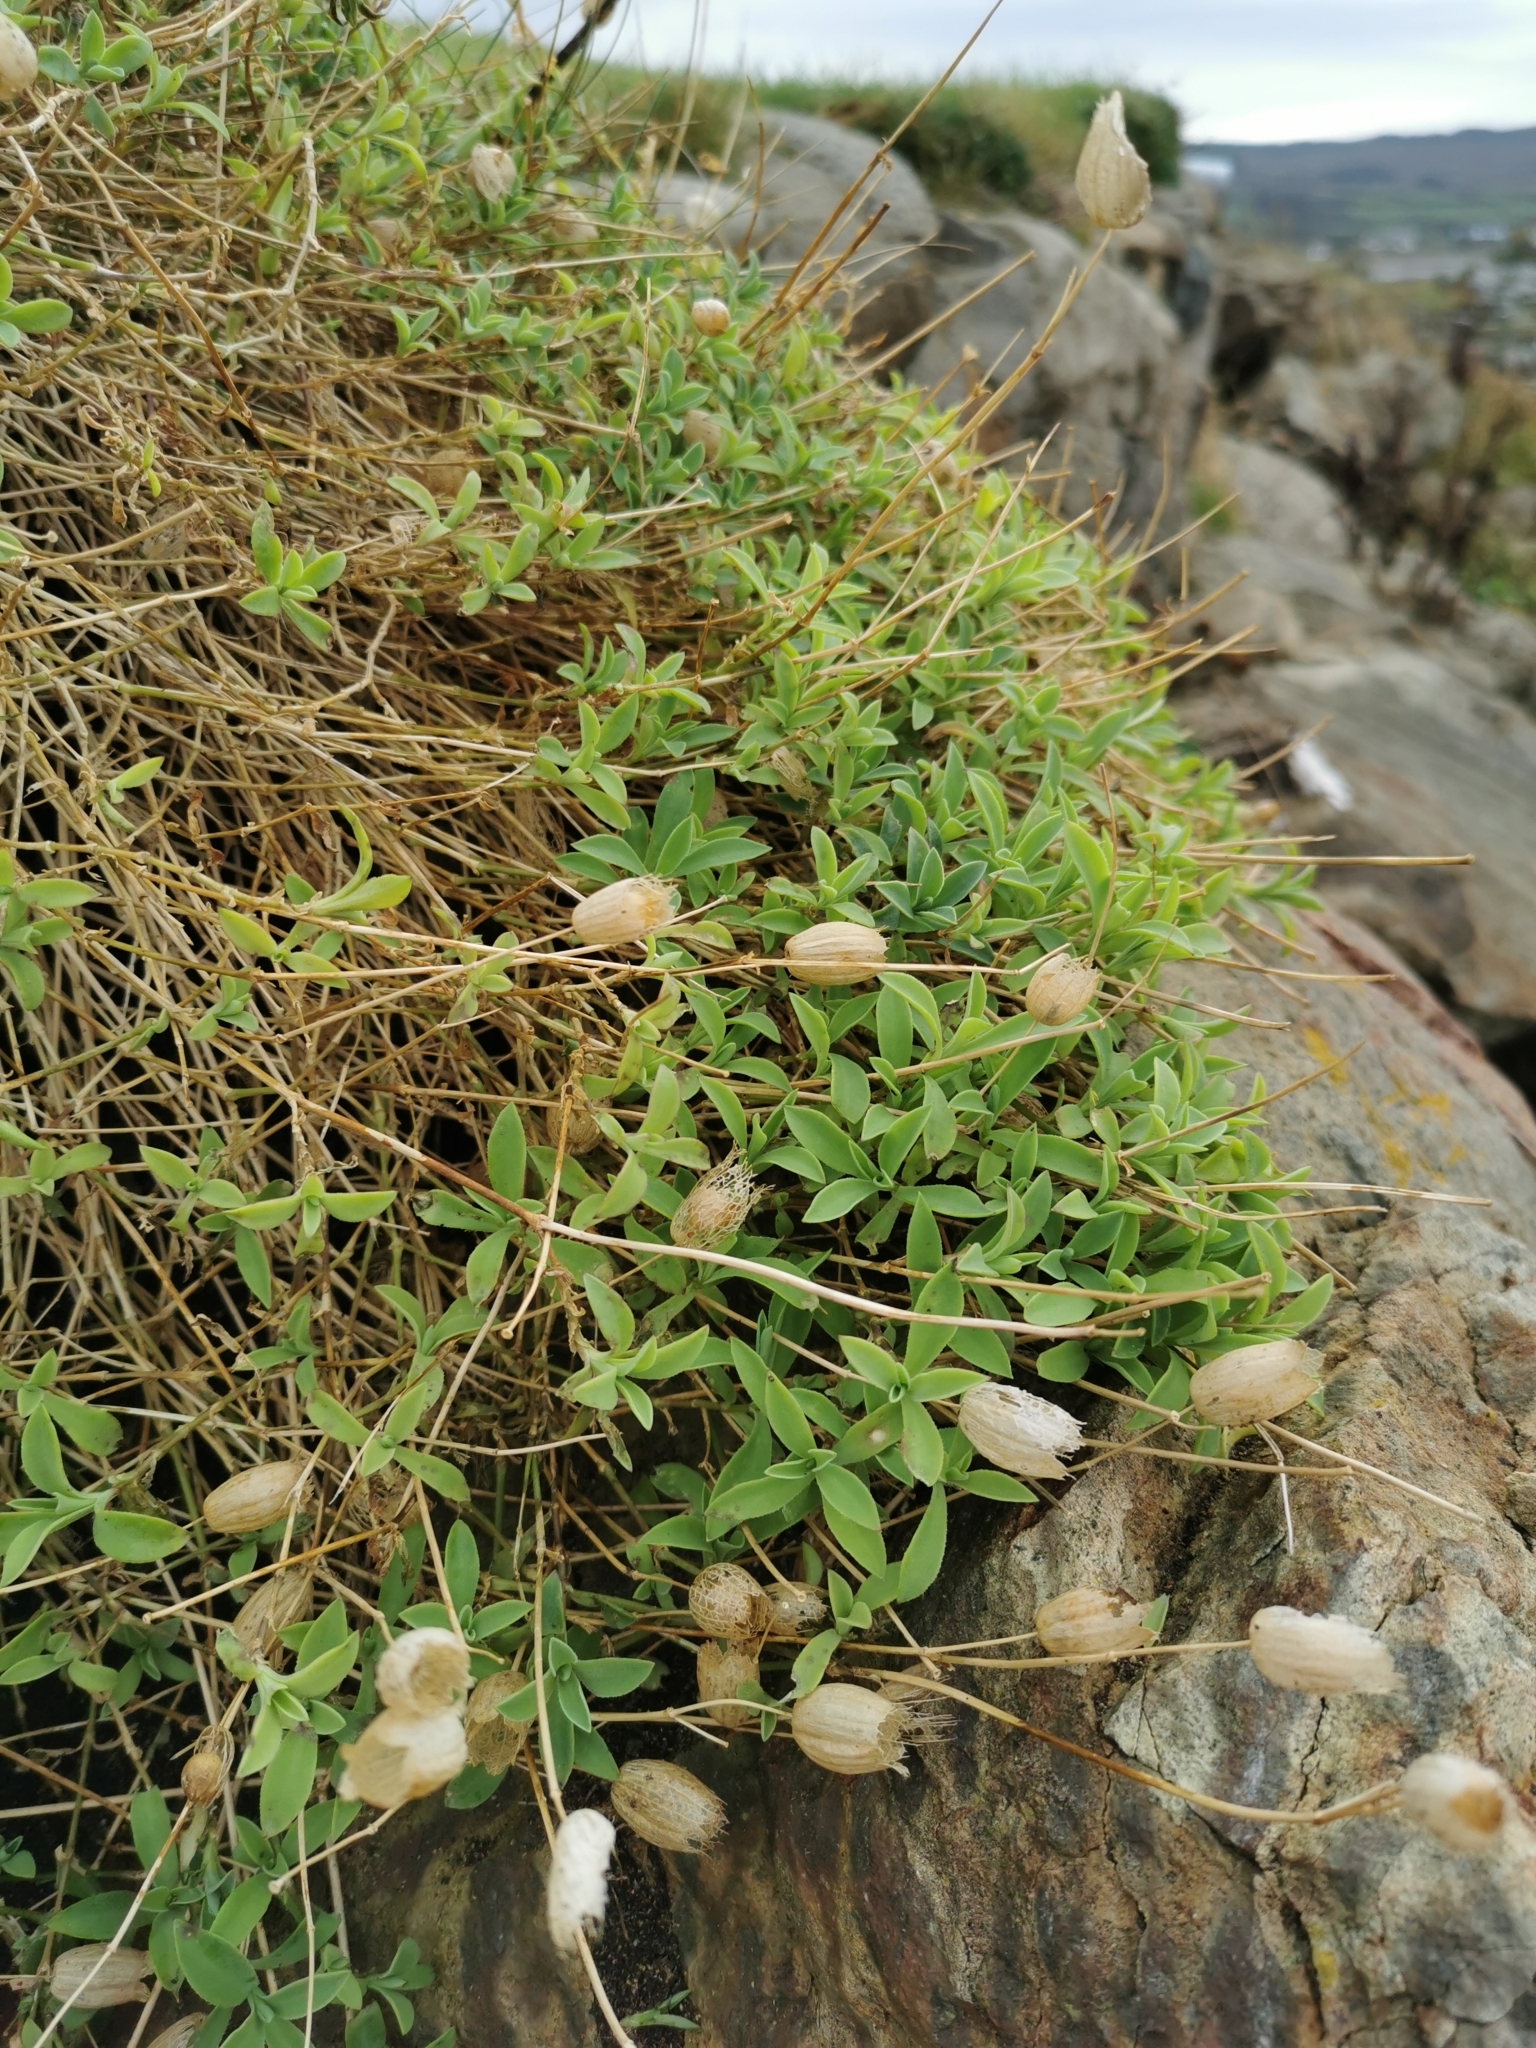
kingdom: Plantae
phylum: Tracheophyta
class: Magnoliopsida
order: Caryophyllales
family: Caryophyllaceae
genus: Silene
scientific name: Silene uniflora
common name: Sea campion
